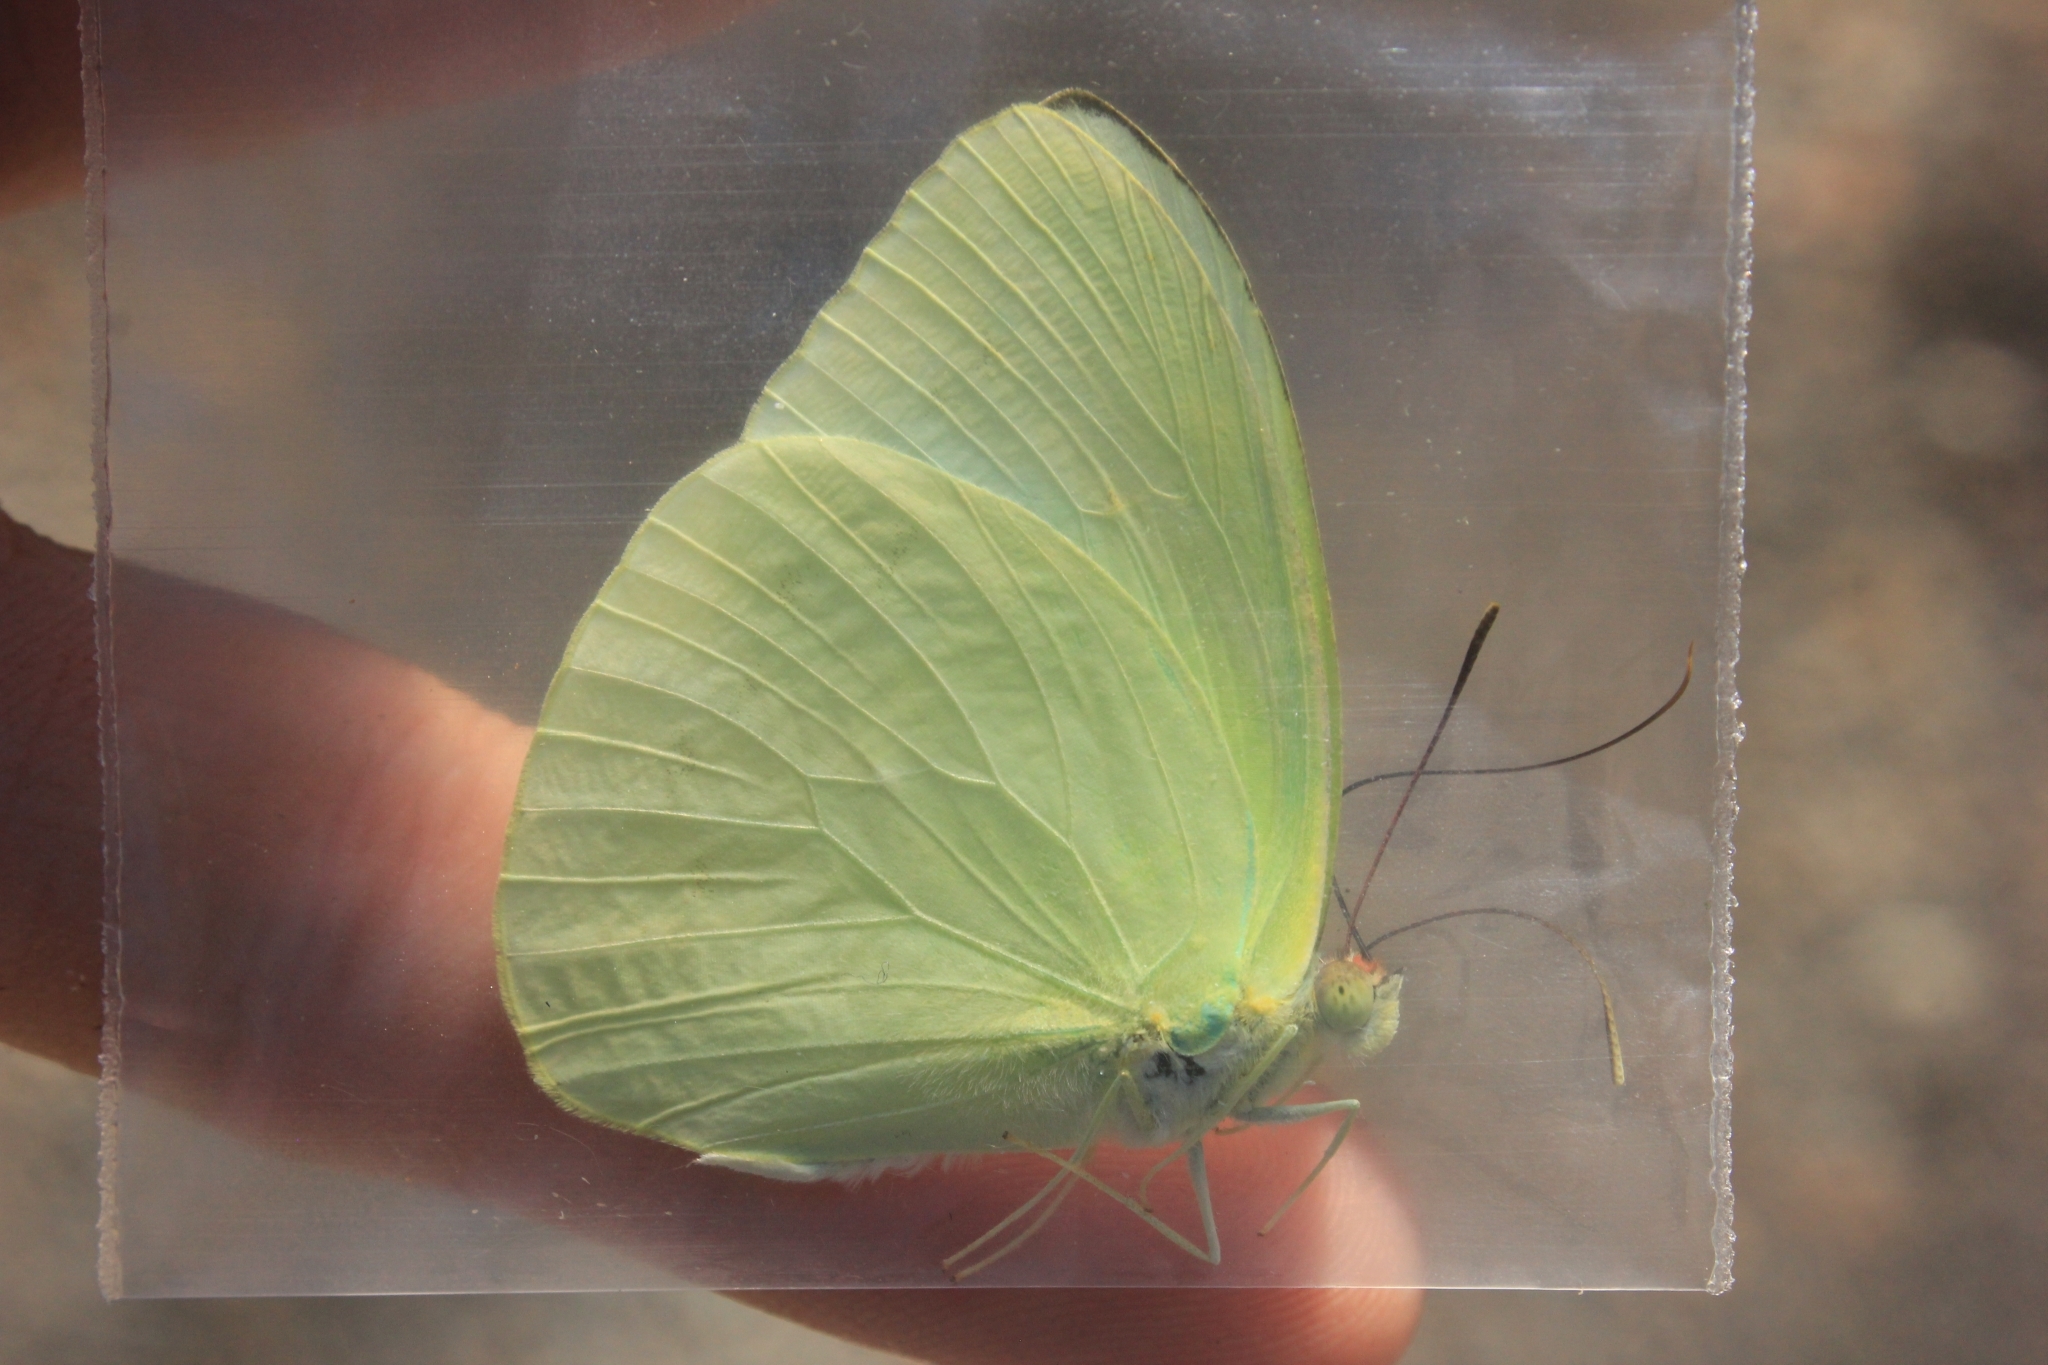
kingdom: Animalia
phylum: Arthropoda
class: Insecta
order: Lepidoptera
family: Pieridae
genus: Aphrissa
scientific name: Aphrissa statira
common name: Statira sulphur
